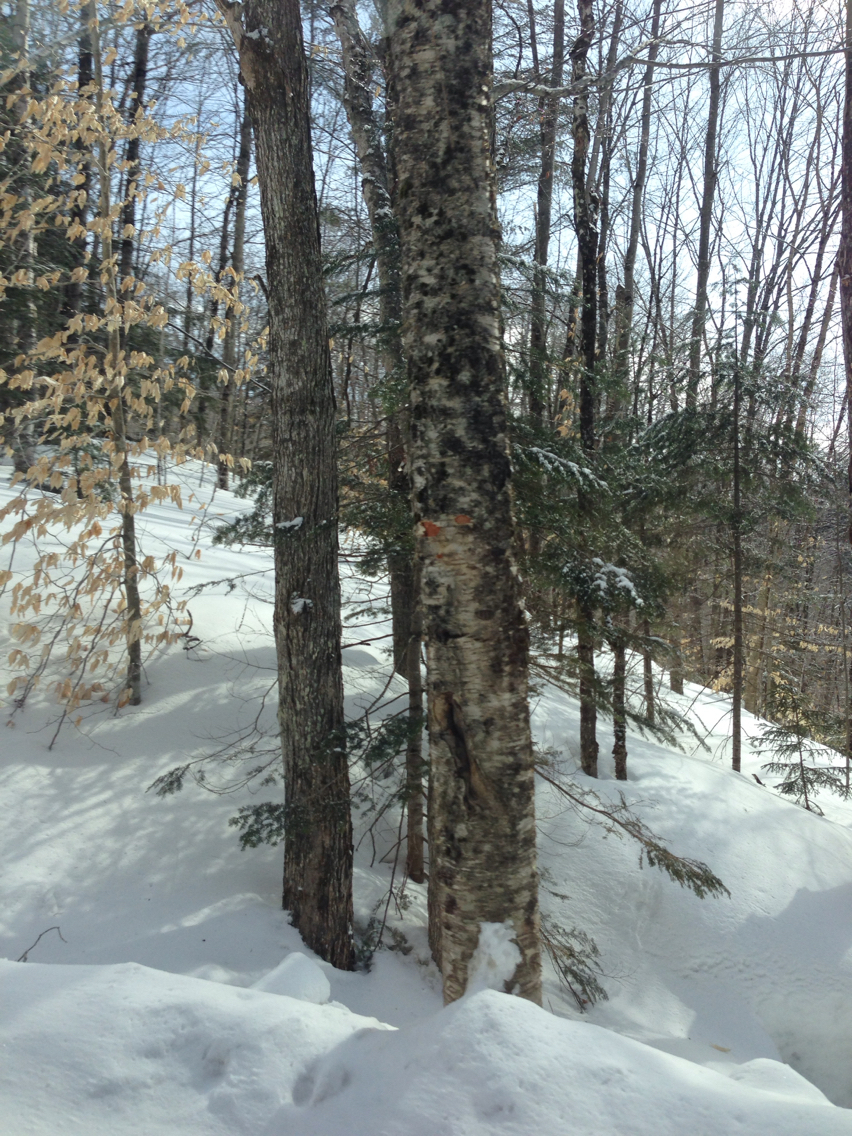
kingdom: Plantae
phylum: Tracheophyta
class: Magnoliopsida
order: Fagales
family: Betulaceae
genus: Betula
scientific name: Betula alleghaniensis
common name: Yellow birch
